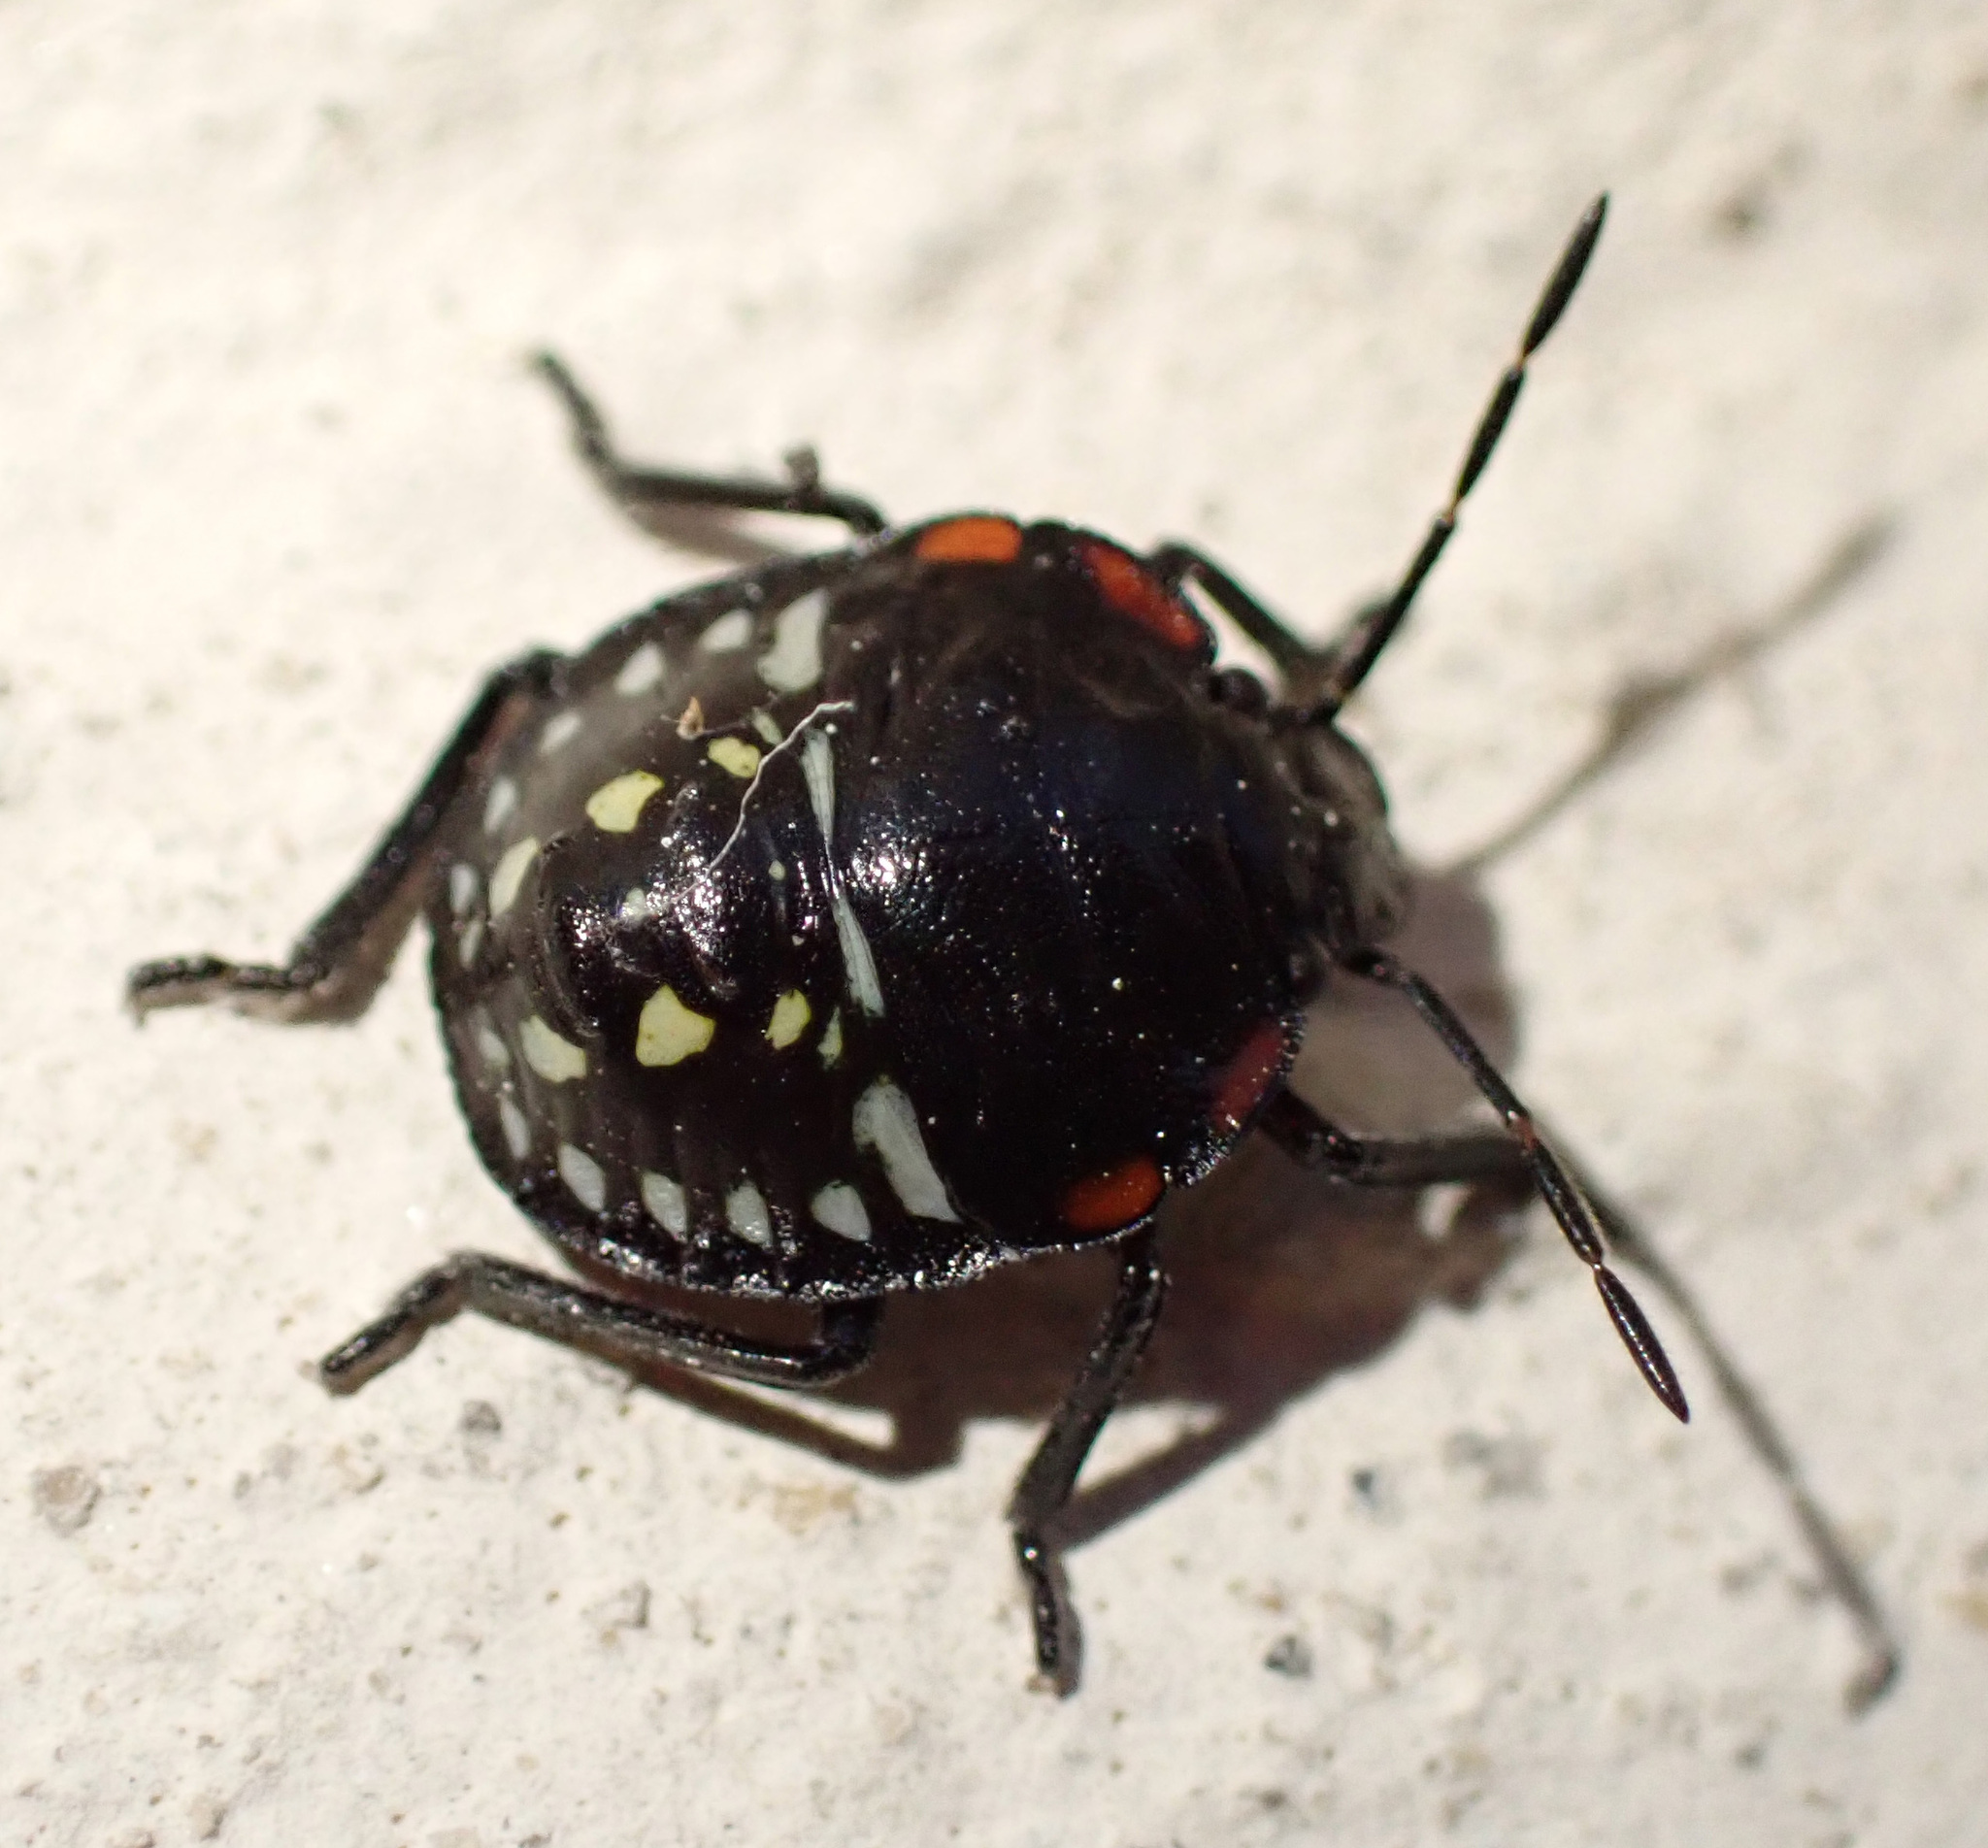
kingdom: Animalia
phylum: Arthropoda
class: Insecta
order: Hemiptera
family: Pentatomidae
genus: Nezara
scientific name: Nezara viridula
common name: Southern green stink bug
